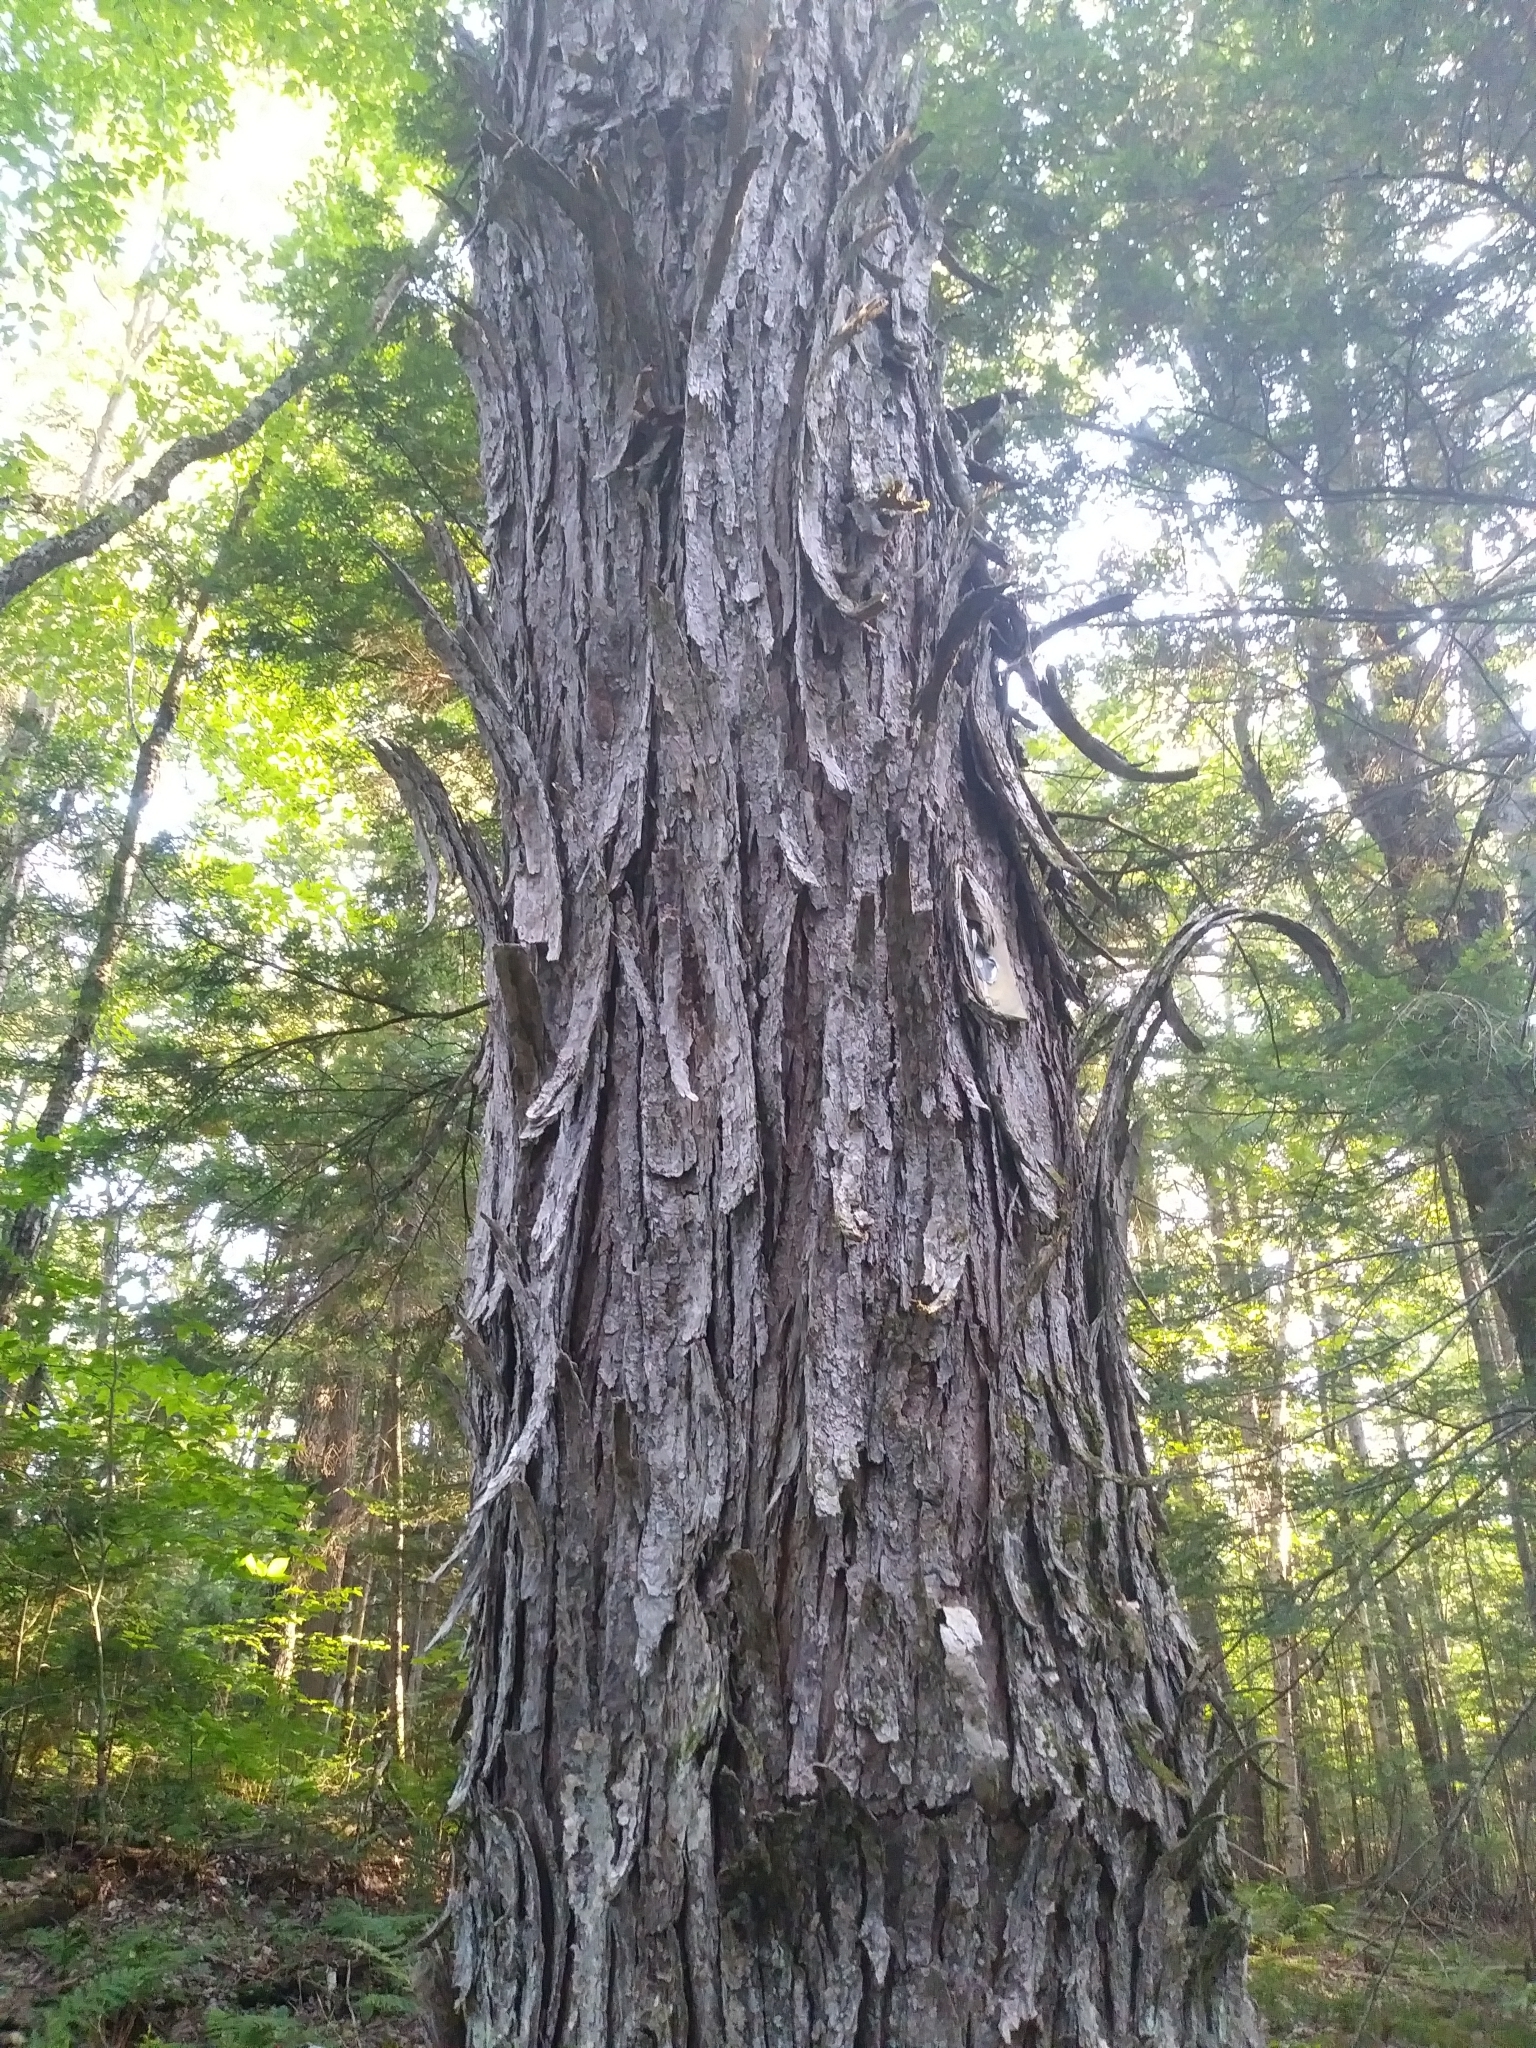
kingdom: Plantae
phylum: Tracheophyta
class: Magnoliopsida
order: Sapindales
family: Sapindaceae
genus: Acer
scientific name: Acer rubrum
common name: Red maple
